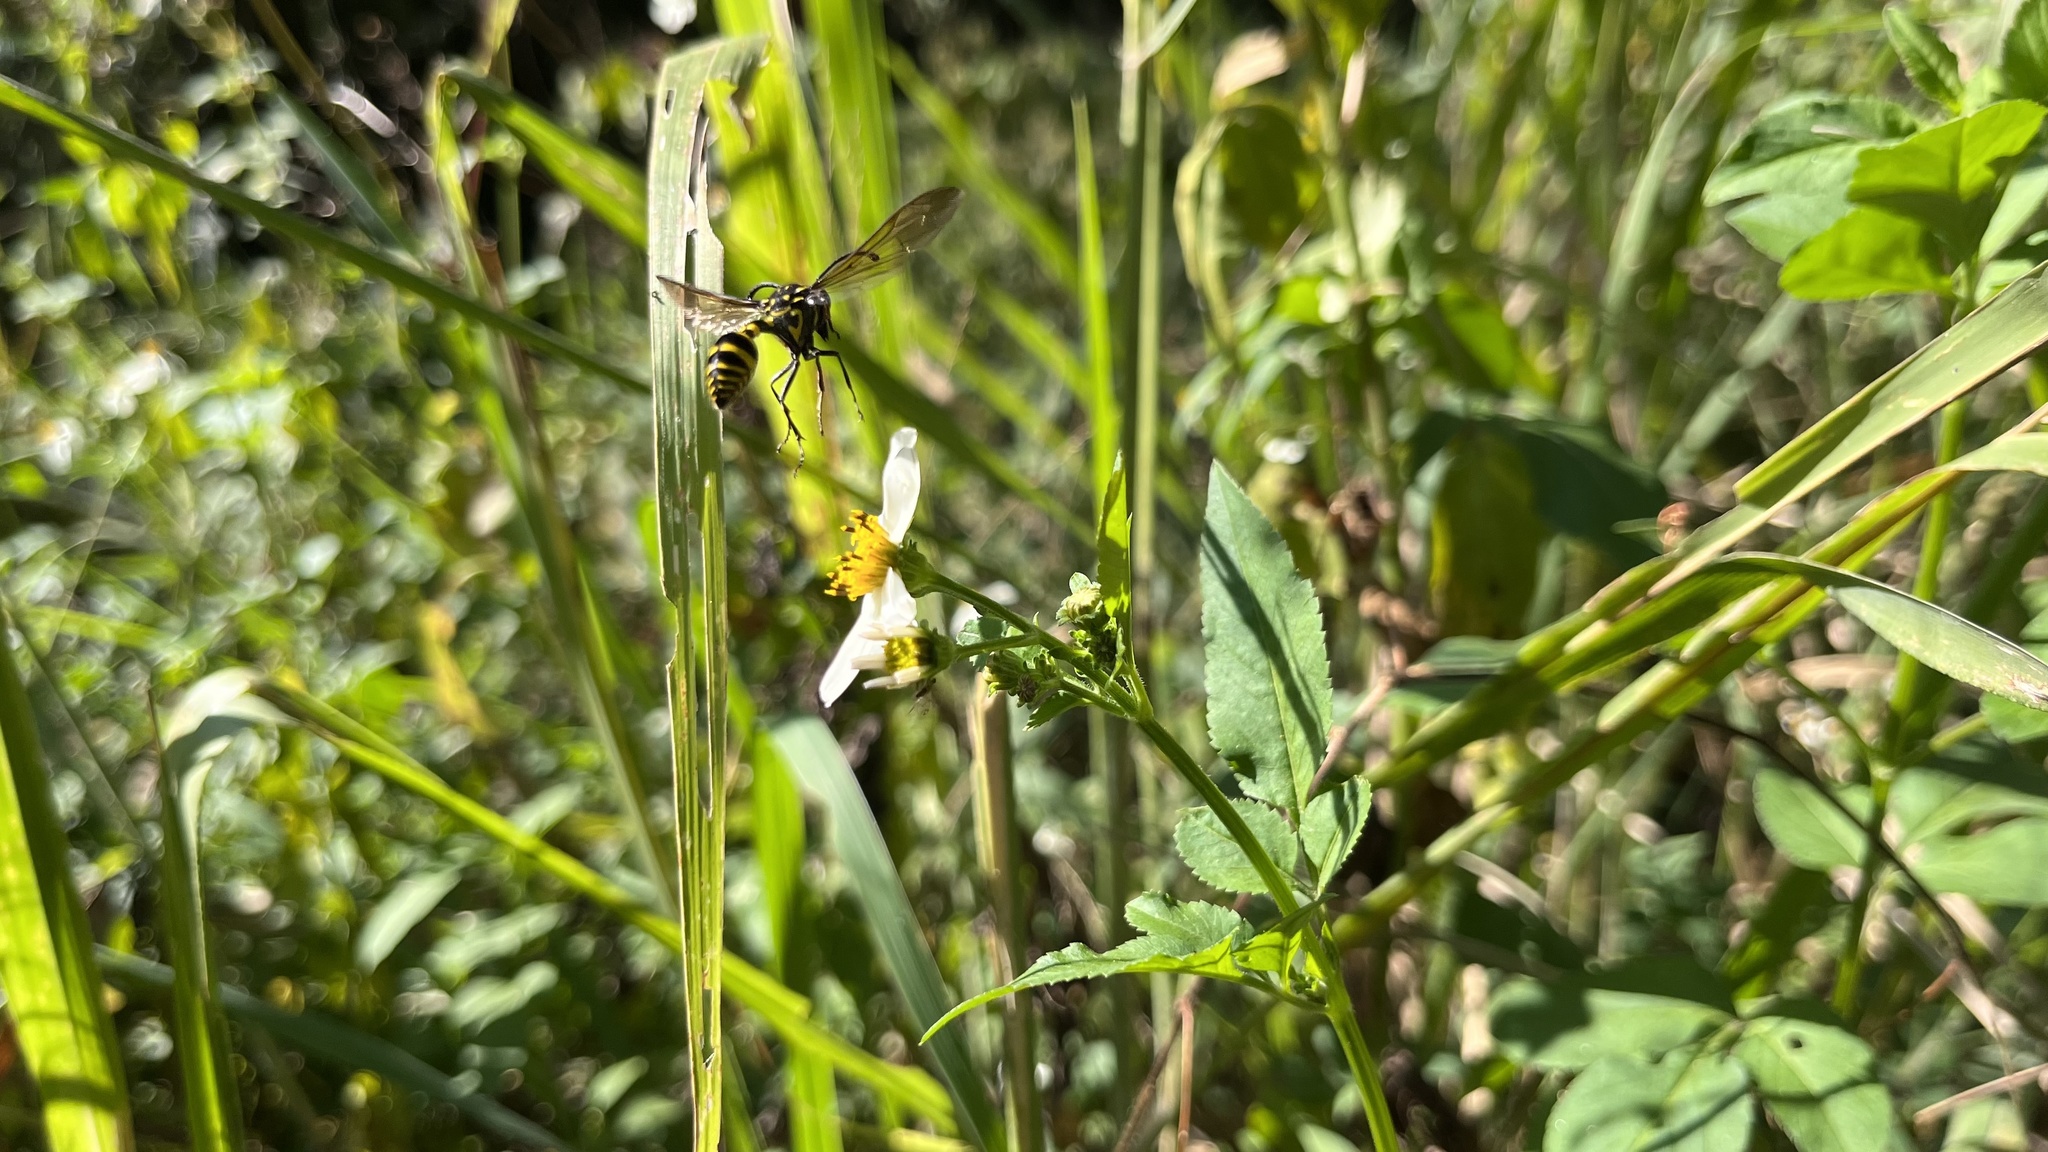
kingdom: Animalia
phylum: Arthropoda
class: Insecta
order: Hymenoptera
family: Eumenidae
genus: Phimenes
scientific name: Phimenes flavopictus
